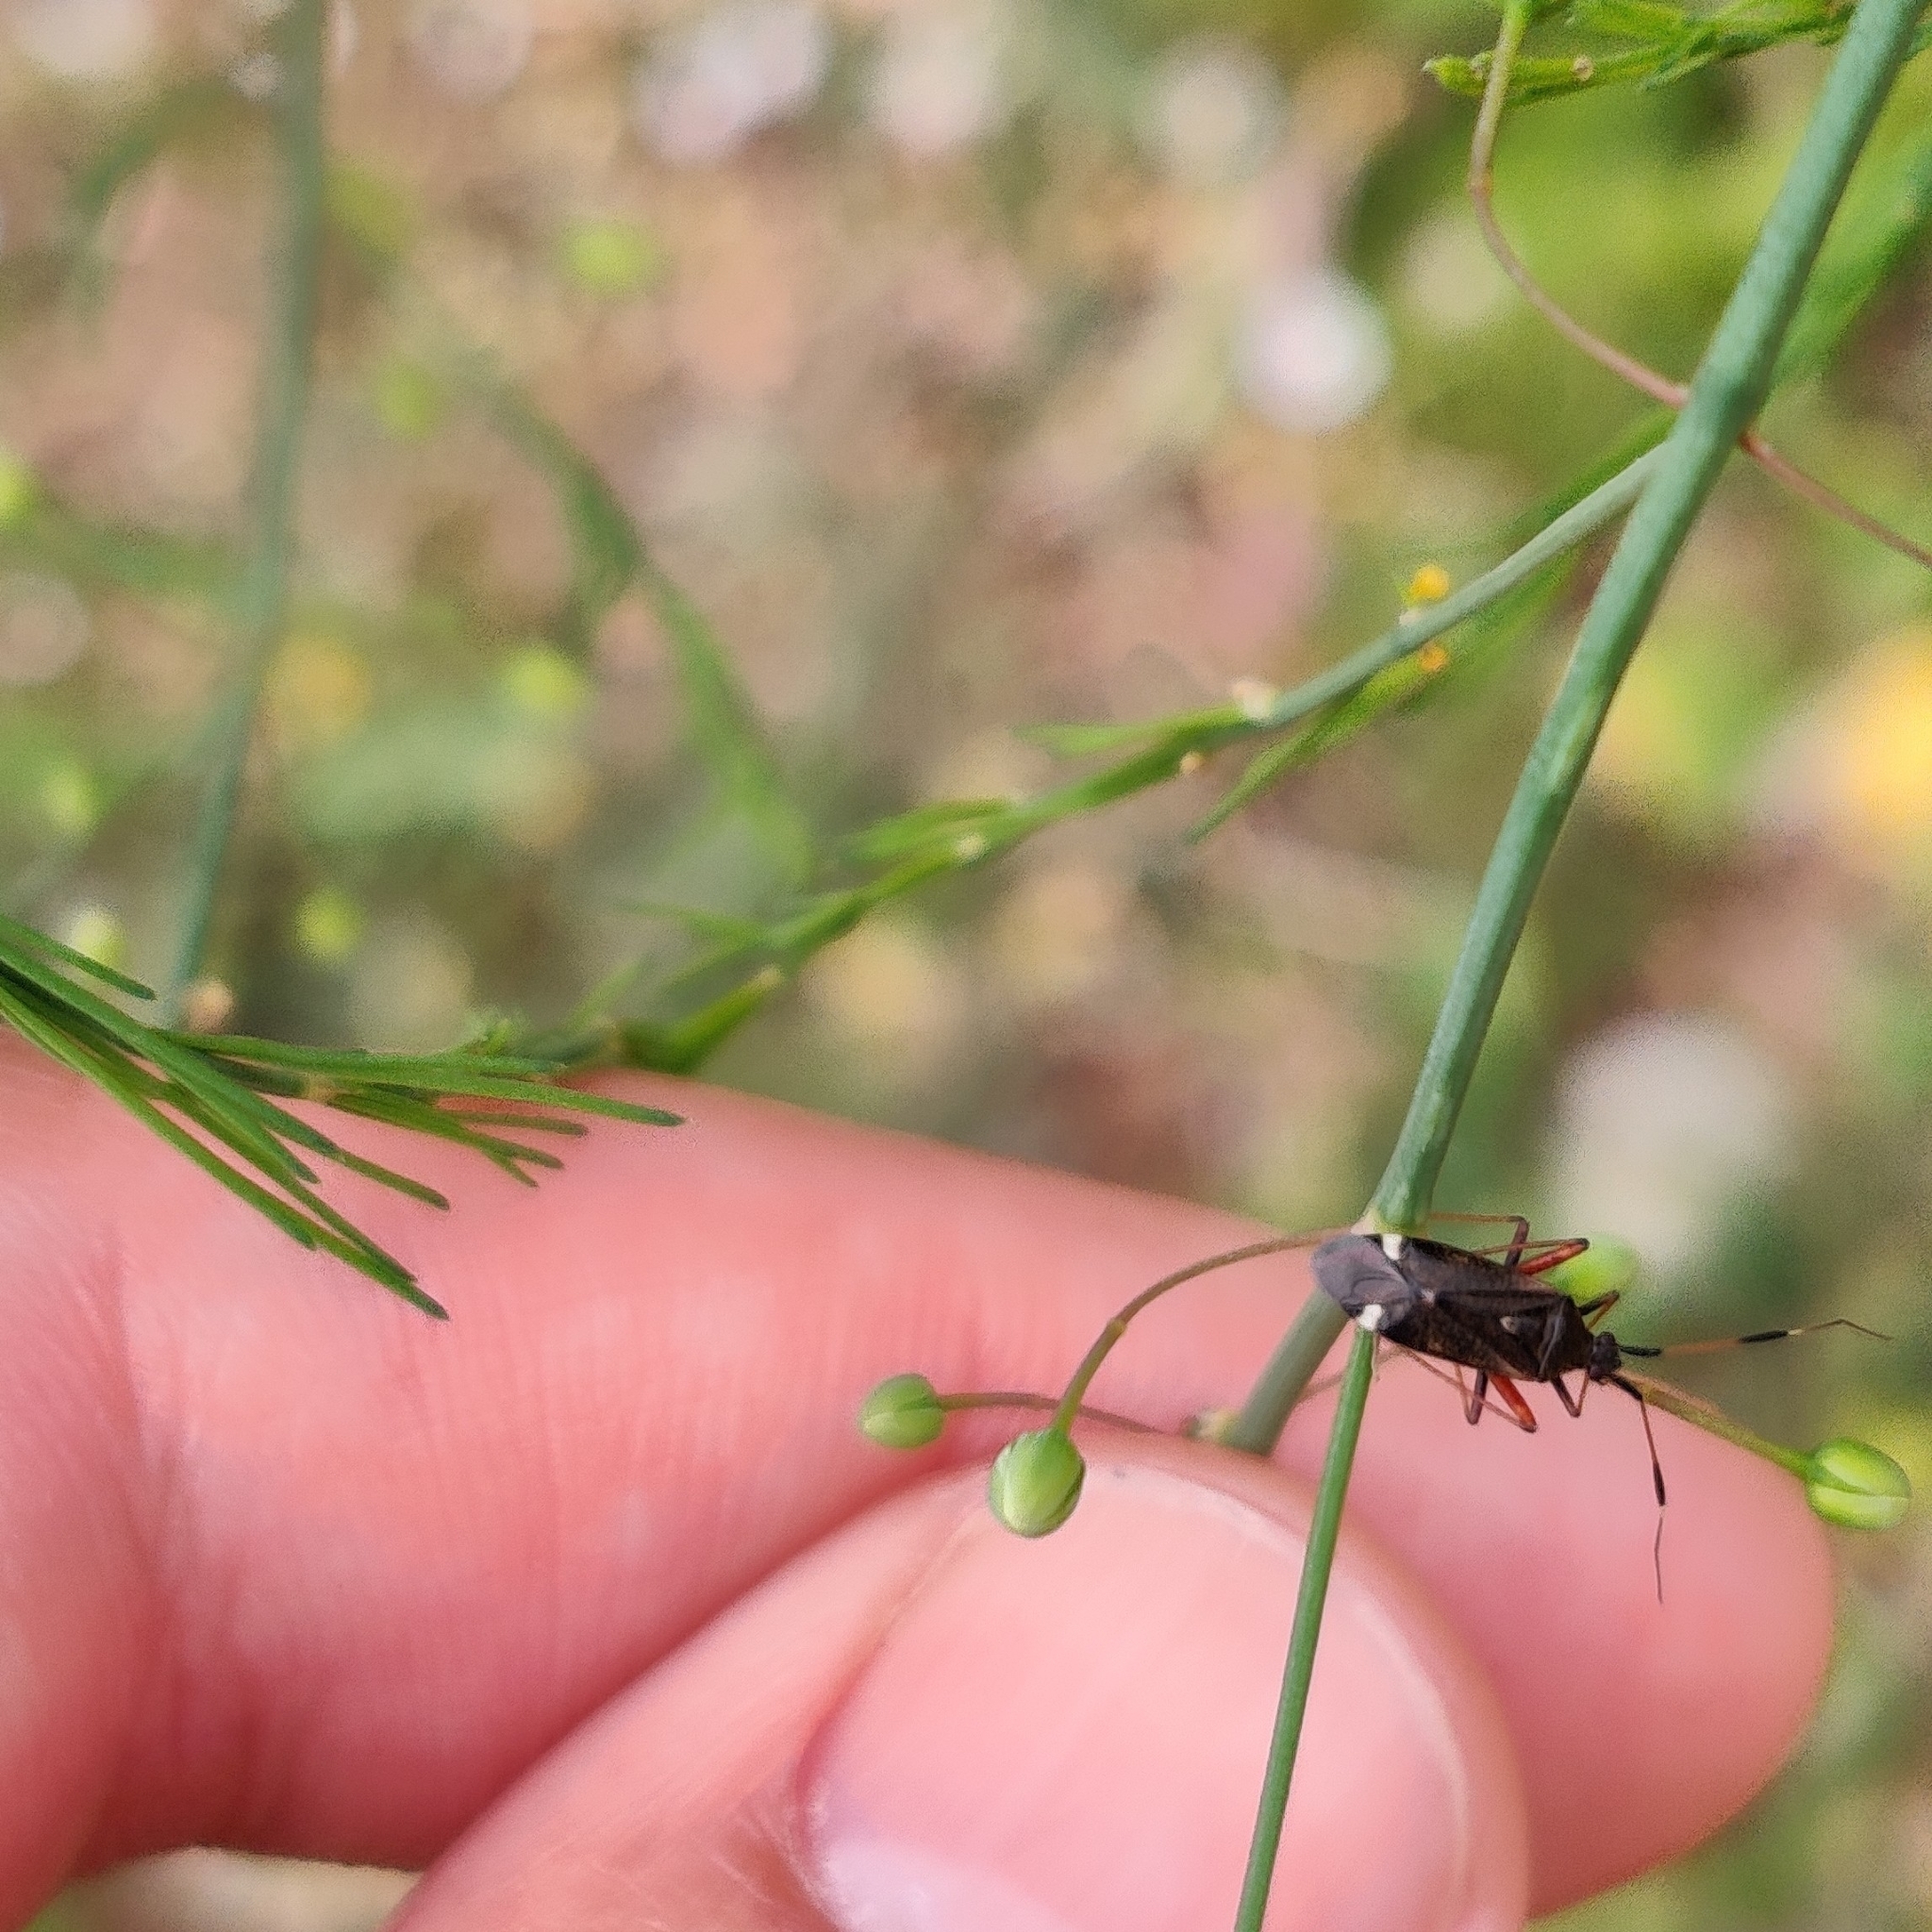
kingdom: Animalia
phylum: Arthropoda
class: Insecta
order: Hemiptera
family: Miridae
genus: Closterotomus
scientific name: Closterotomus biclavatus
